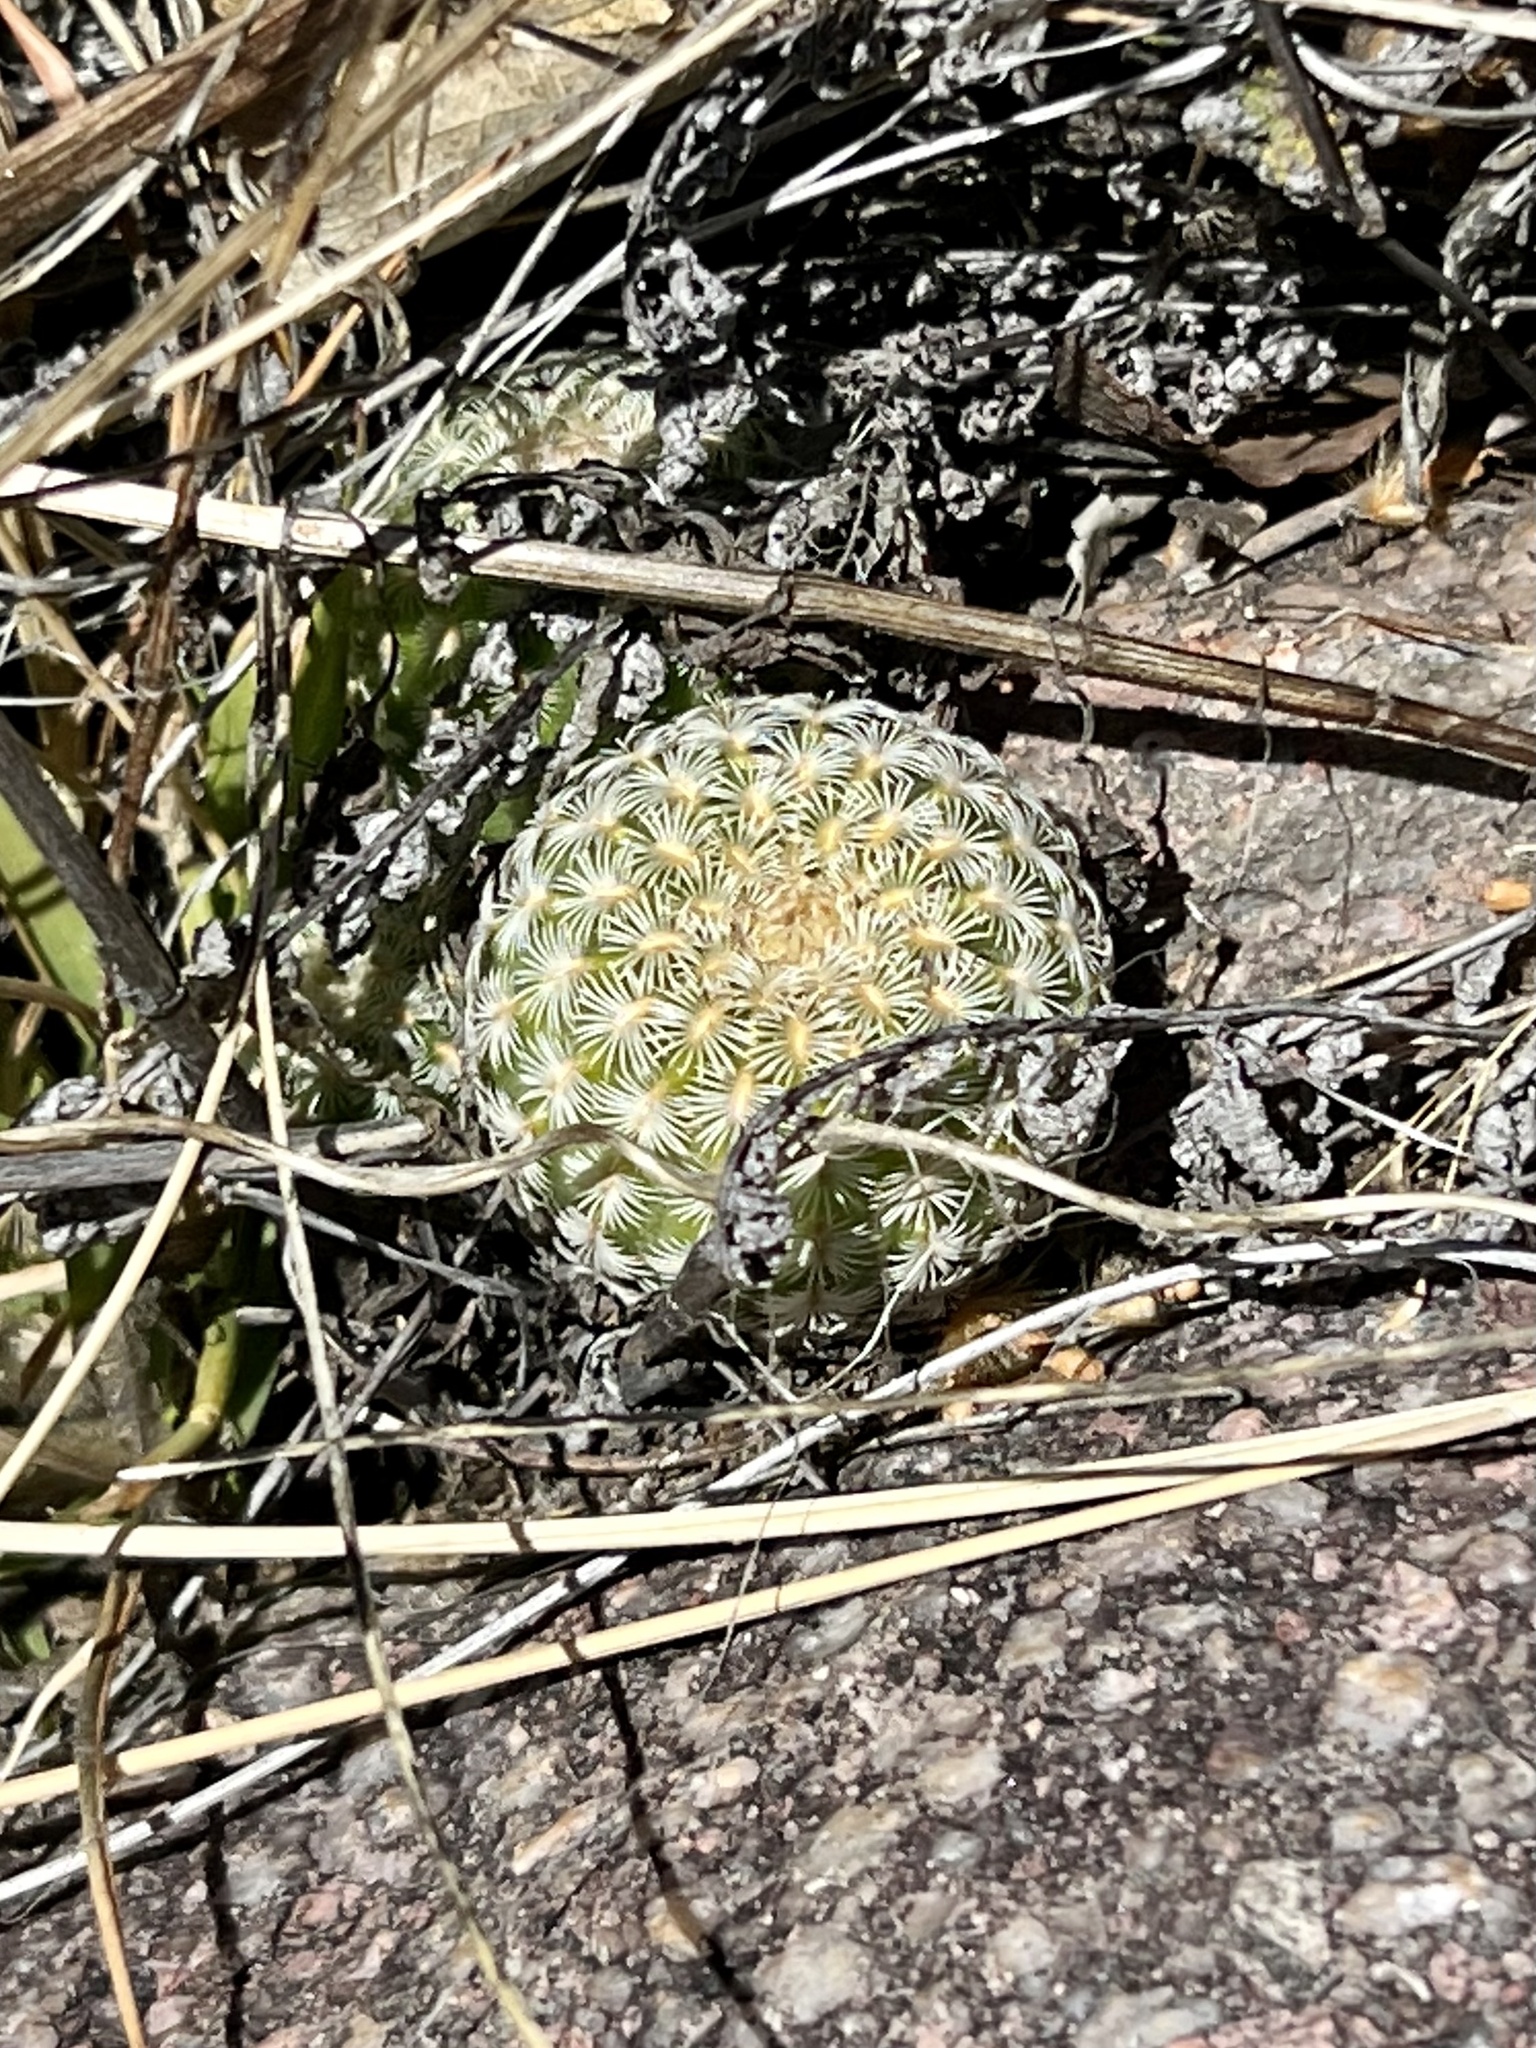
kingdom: Plantae
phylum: Tracheophyta
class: Magnoliopsida
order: Caryophyllales
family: Cactaceae
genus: Echinocereus
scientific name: Echinocereus rigidissimus
